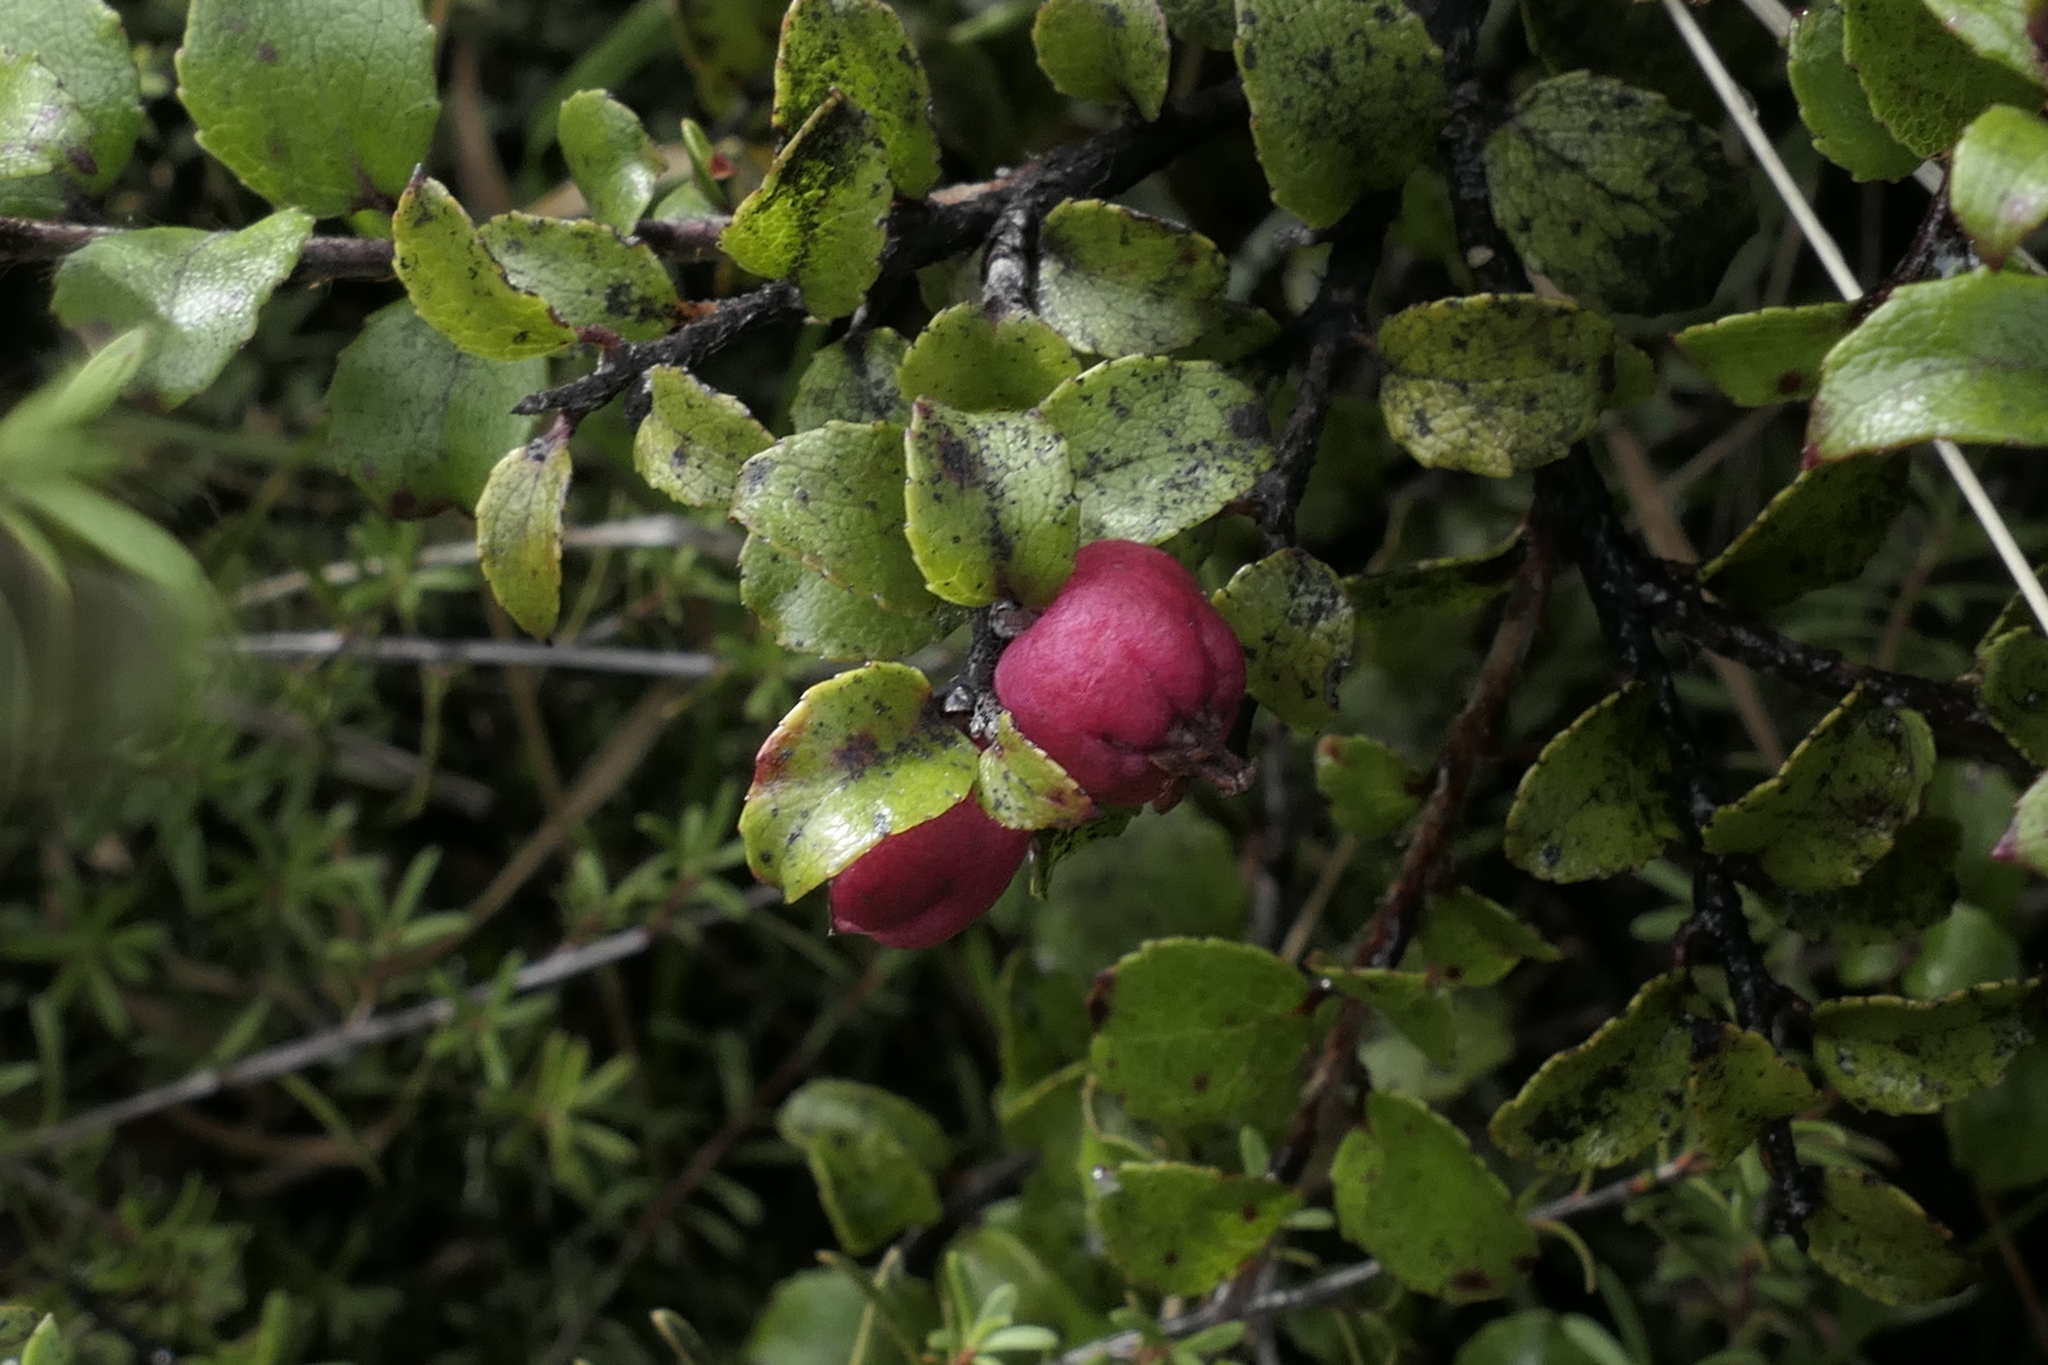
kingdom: Plantae
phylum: Tracheophyta
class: Magnoliopsida
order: Ericales
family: Ericaceae
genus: Gaultheria
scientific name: Gaultheria antipoda
